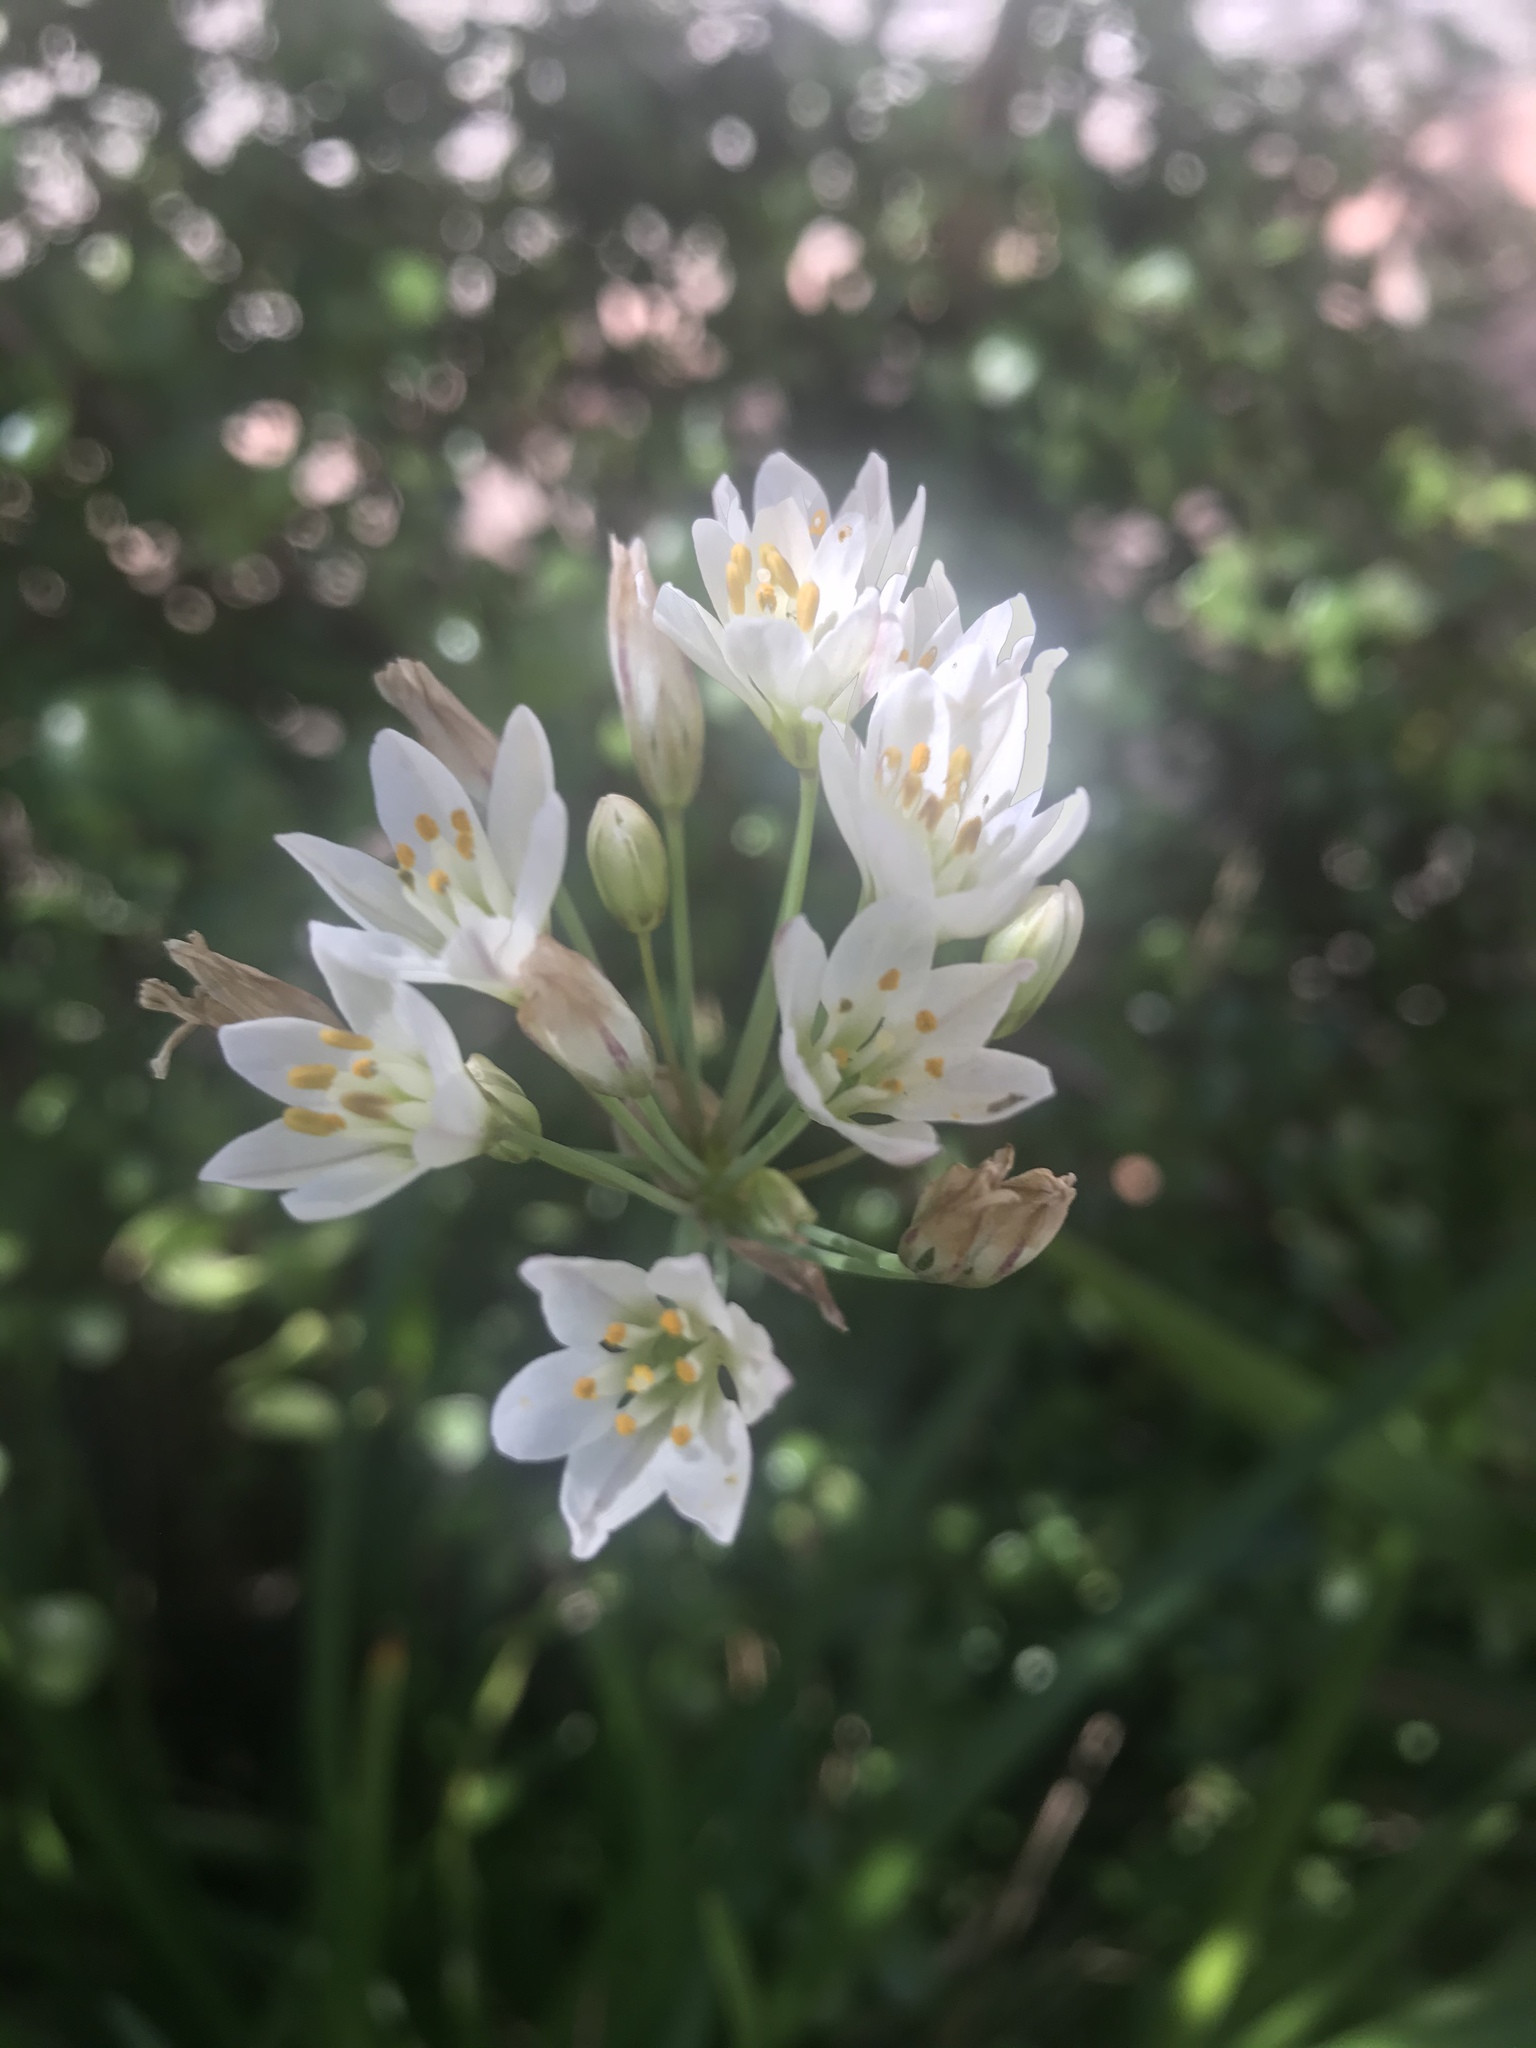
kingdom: Plantae
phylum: Tracheophyta
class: Liliopsida
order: Asparagales
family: Amaryllidaceae
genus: Nothoscordum
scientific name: Nothoscordum gracile
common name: Slender false garlic
